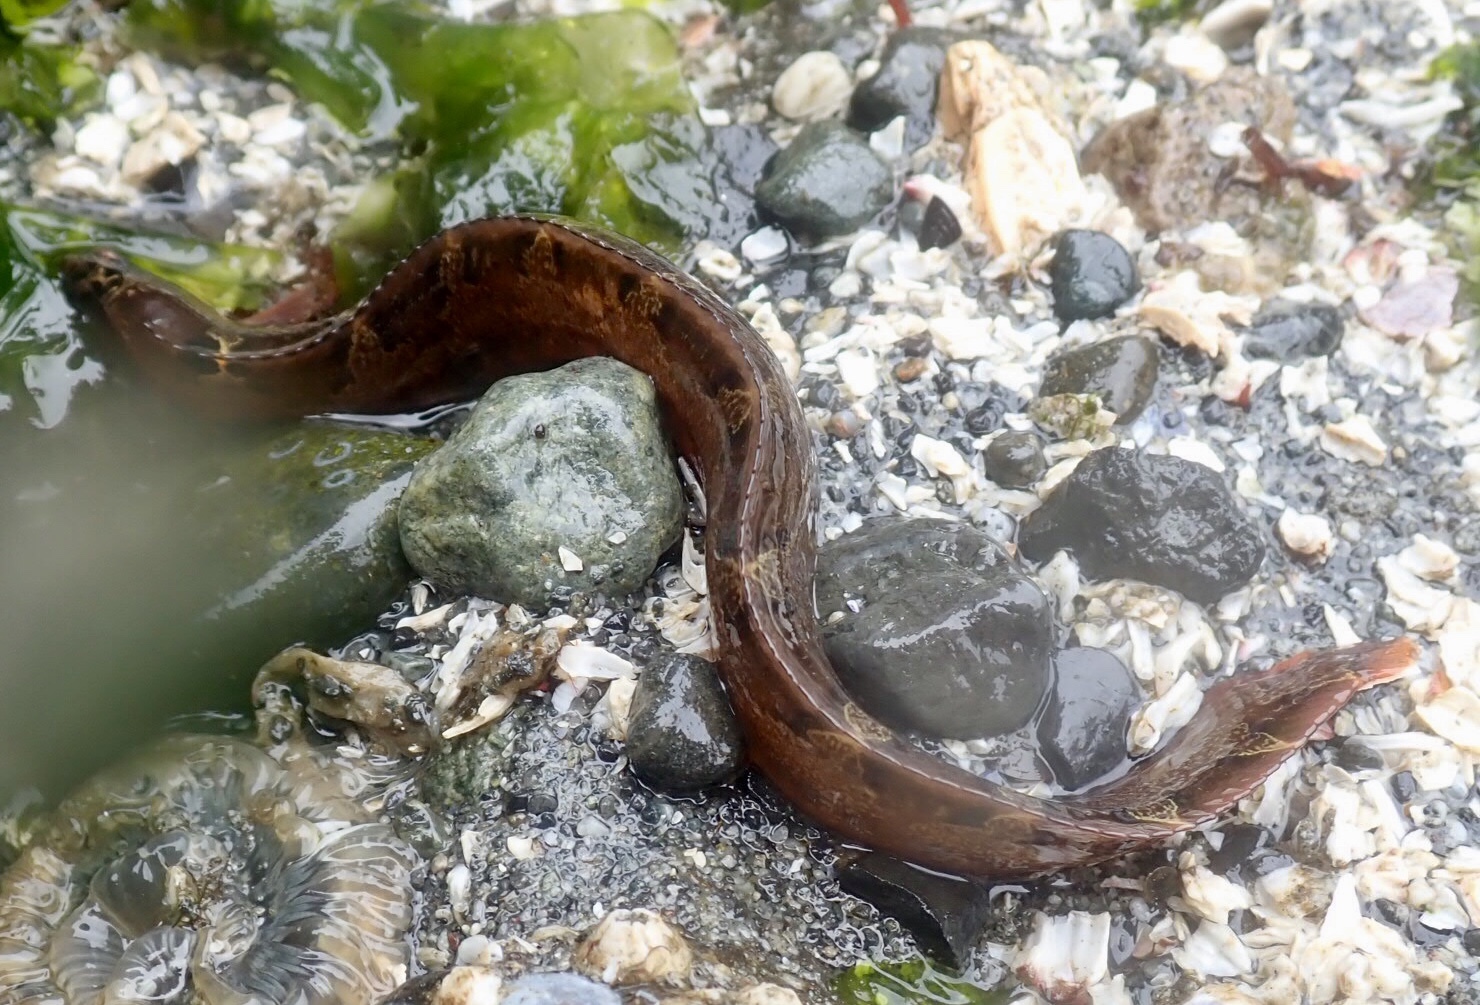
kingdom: Animalia
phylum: Chordata
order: Perciformes
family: Pholidae
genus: Pholis
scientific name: Pholis laeta
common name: Crescent gunnel
